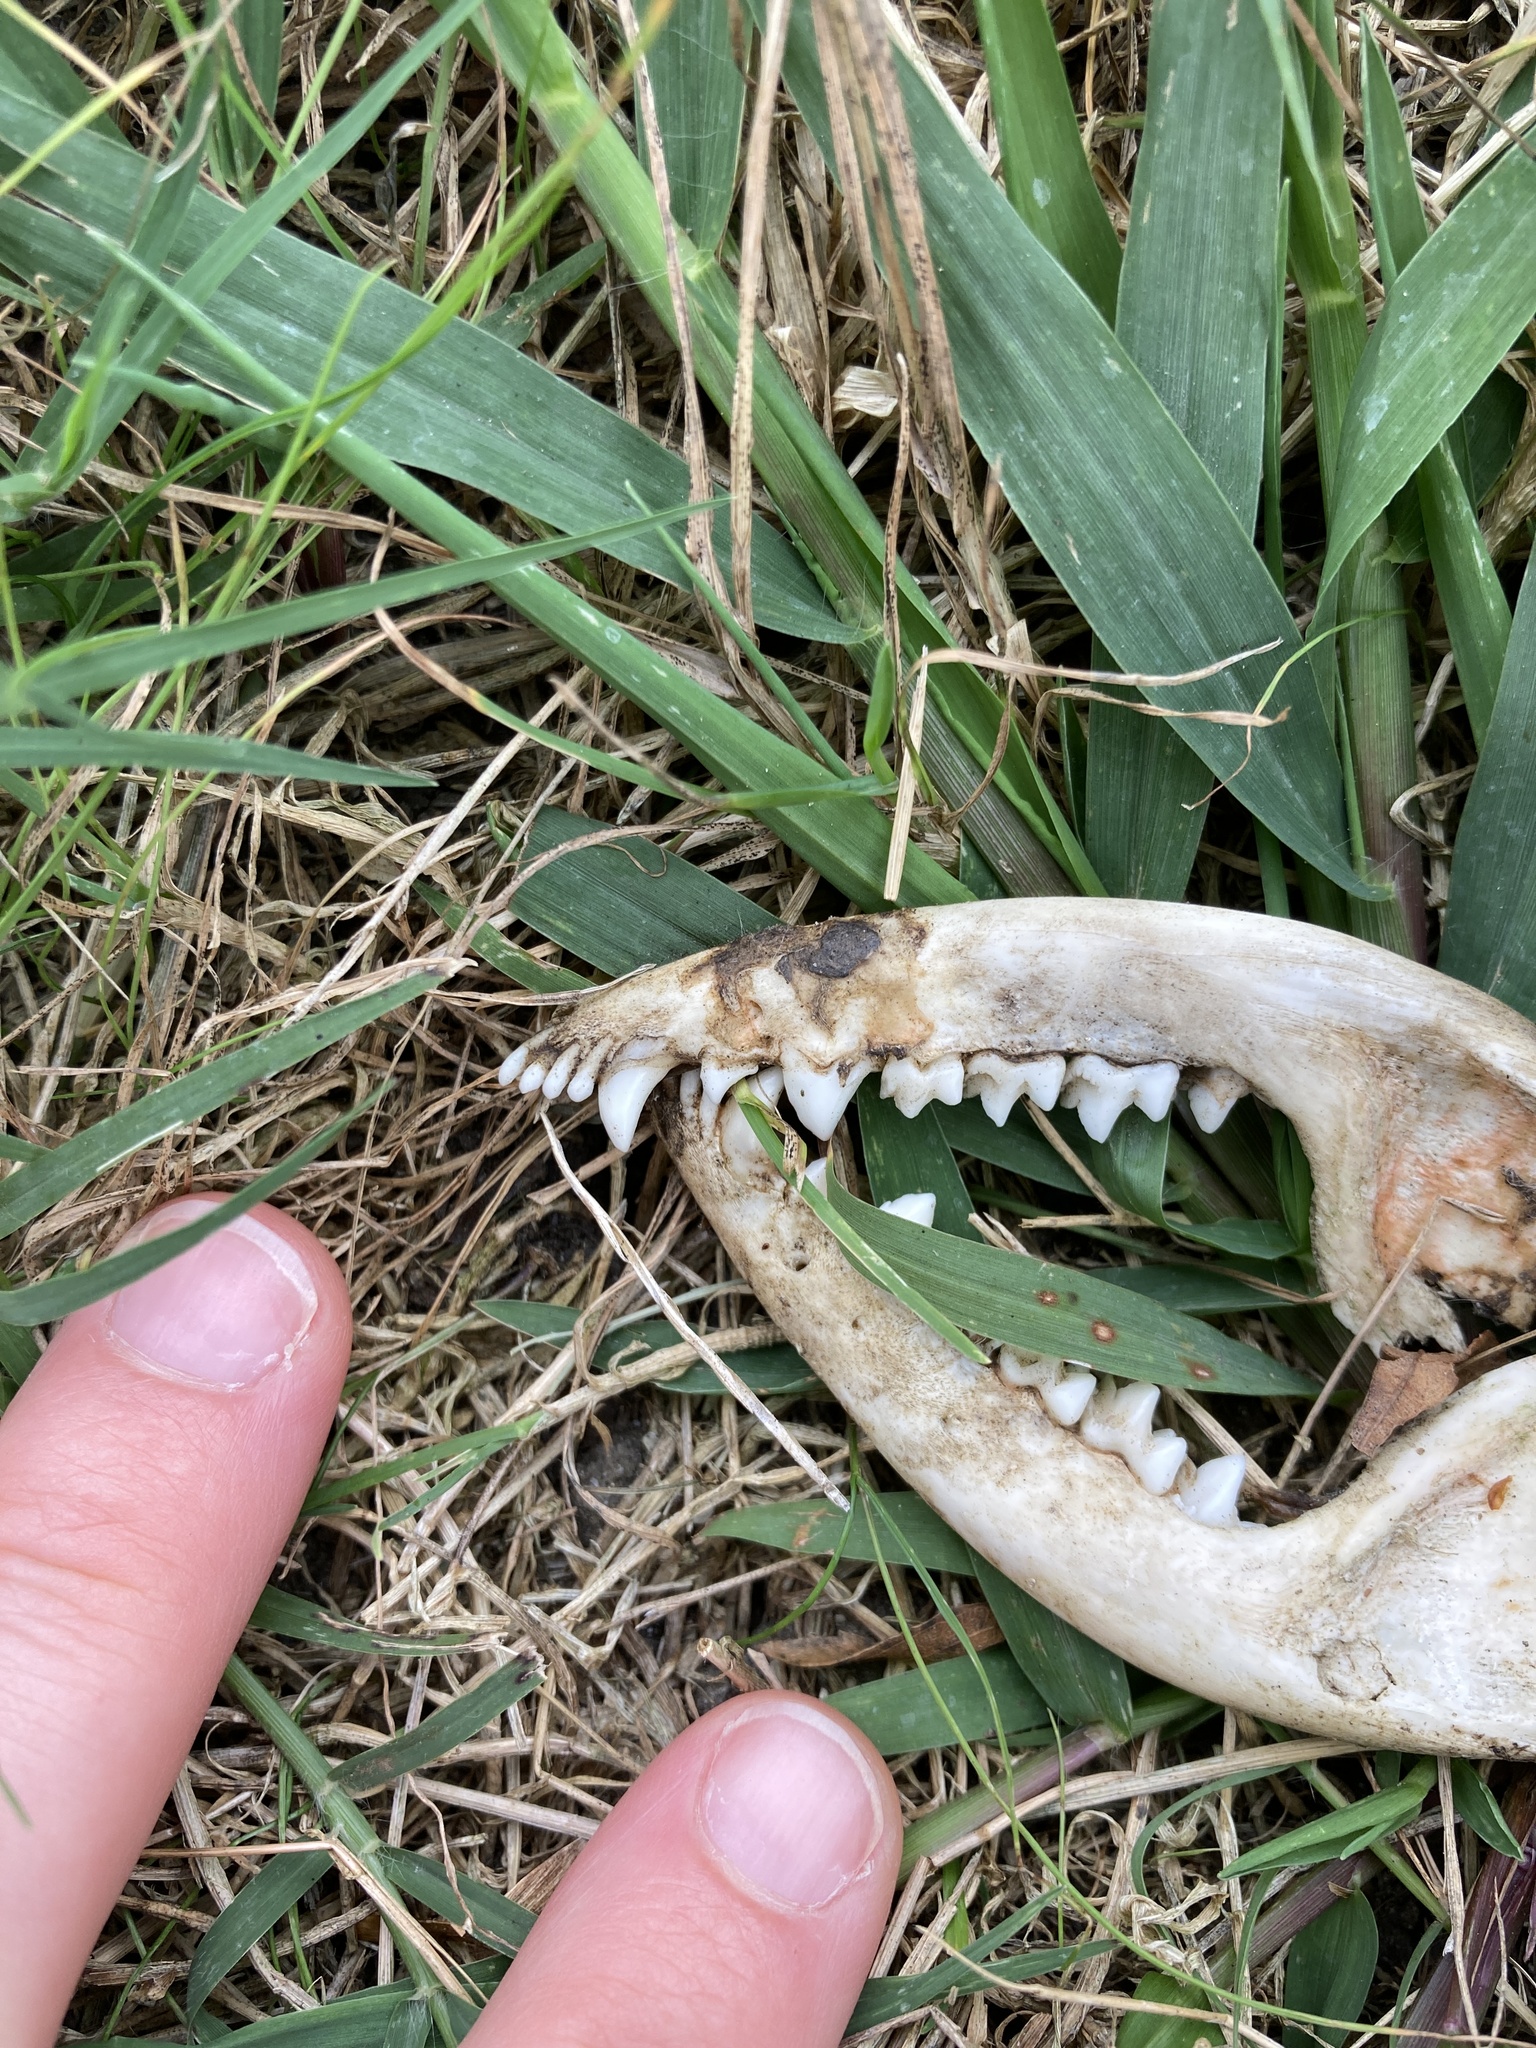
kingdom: Animalia
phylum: Chordata
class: Mammalia
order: Didelphimorphia
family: Didelphidae
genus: Didelphis
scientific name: Didelphis virginiana
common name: Virginia opossum
